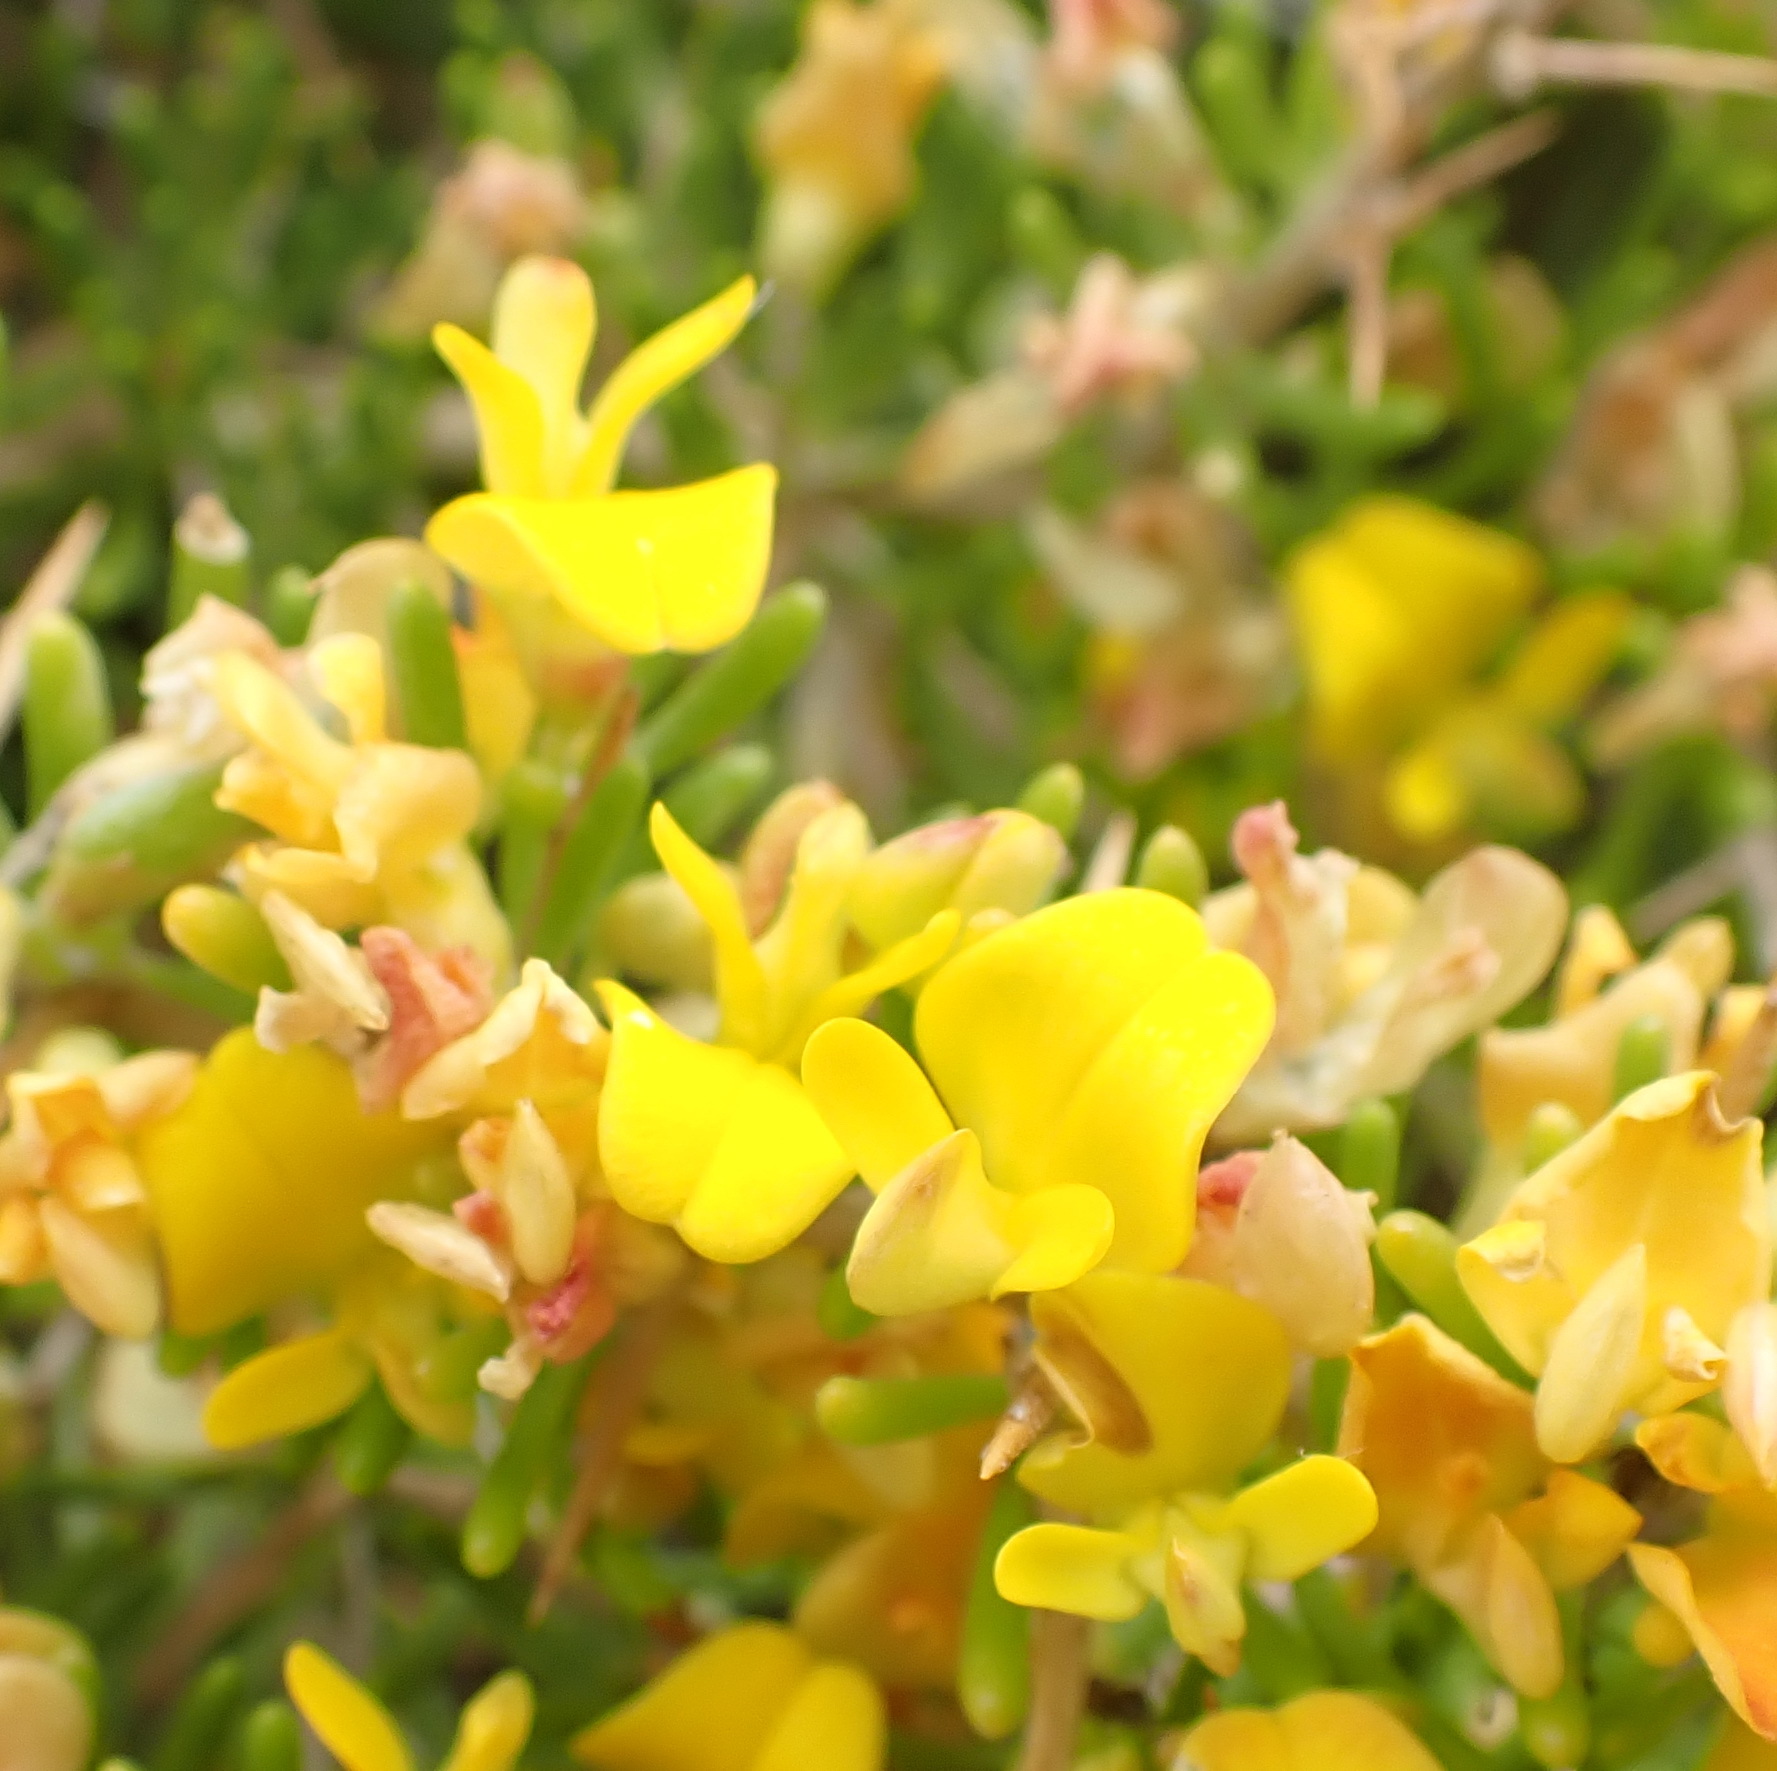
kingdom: Plantae
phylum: Tracheophyta
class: Magnoliopsida
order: Fabales
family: Fabaceae
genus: Aspalathus
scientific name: Aspalathus spinosa
